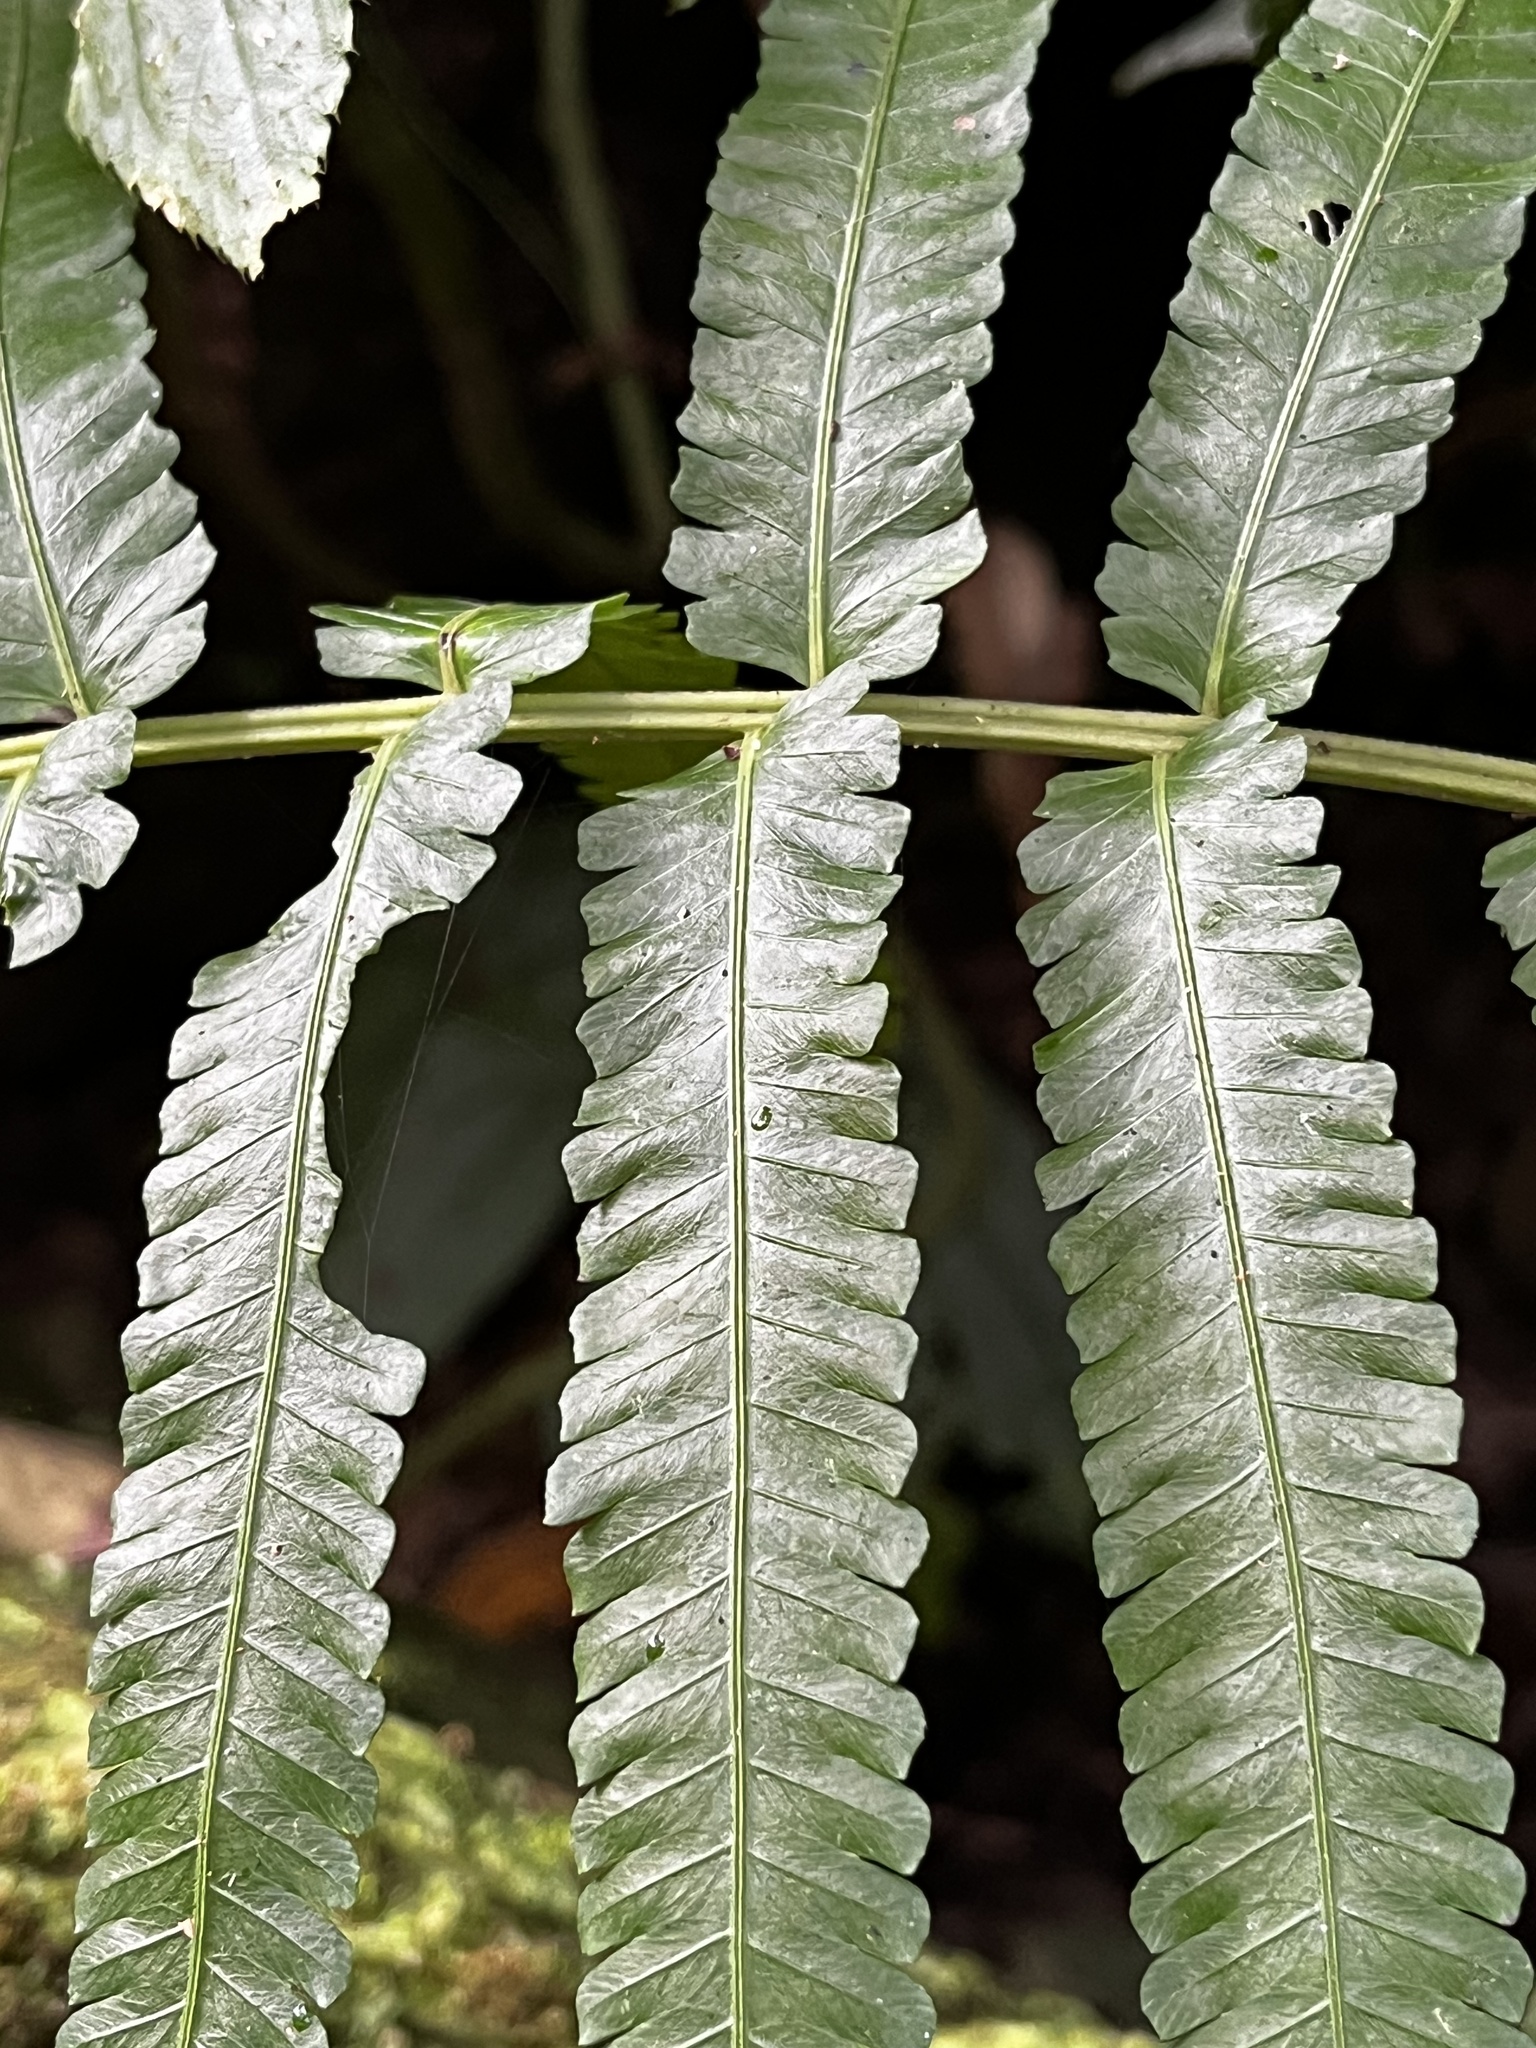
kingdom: Plantae
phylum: Tracheophyta
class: Polypodiopsida
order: Polypodiales
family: Thelypteridaceae
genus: Reholttumia
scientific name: Reholttumia truncata
